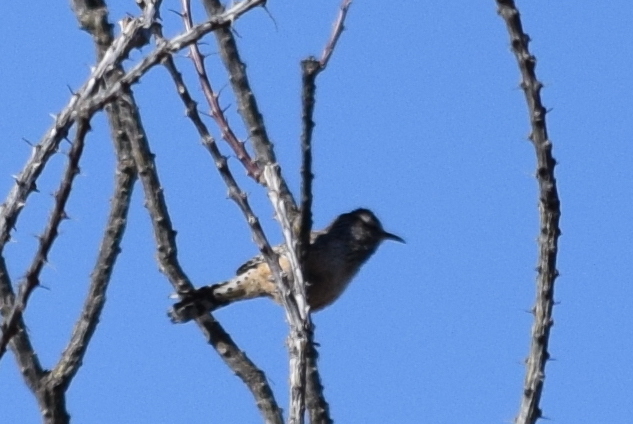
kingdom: Animalia
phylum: Chordata
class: Aves
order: Passeriformes
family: Troglodytidae
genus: Campylorhynchus
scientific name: Campylorhynchus brunneicapillus
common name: Cactus wren
